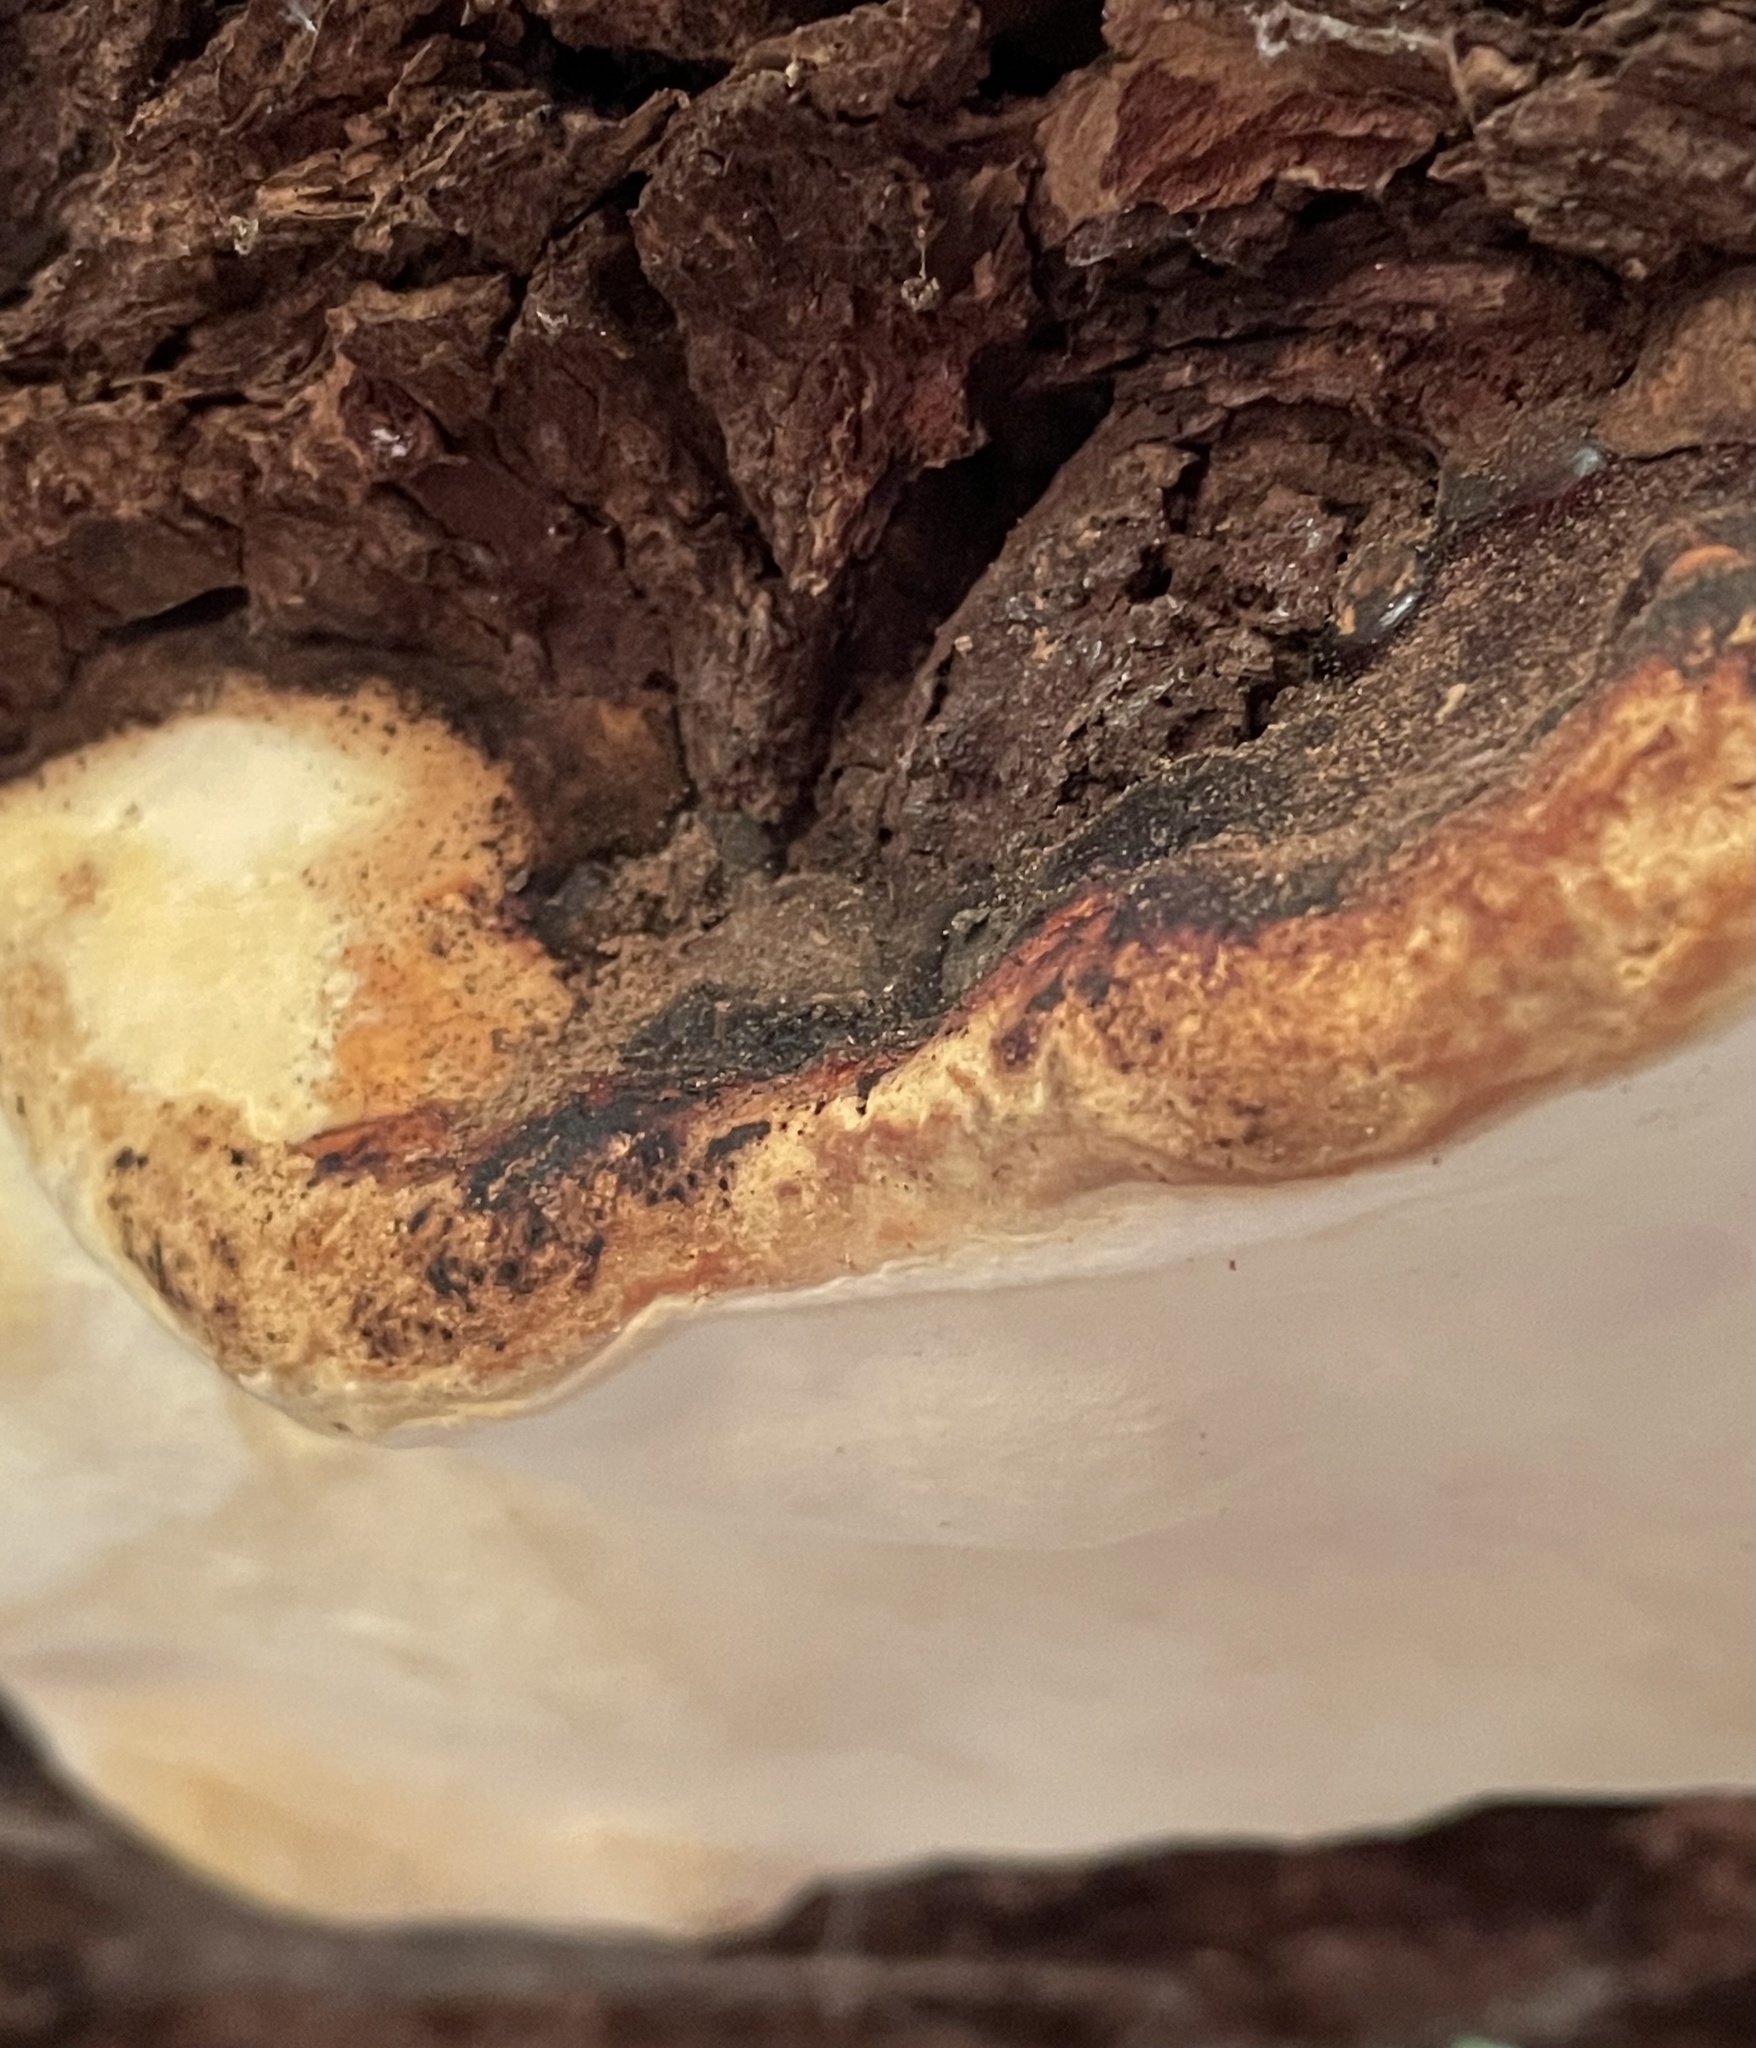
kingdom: Fungi
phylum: Basidiomycota
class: Agaricomycetes
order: Polyporales
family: Fomitopsidaceae
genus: Fomitopsis
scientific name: Fomitopsis mounceae
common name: Northern red belt
